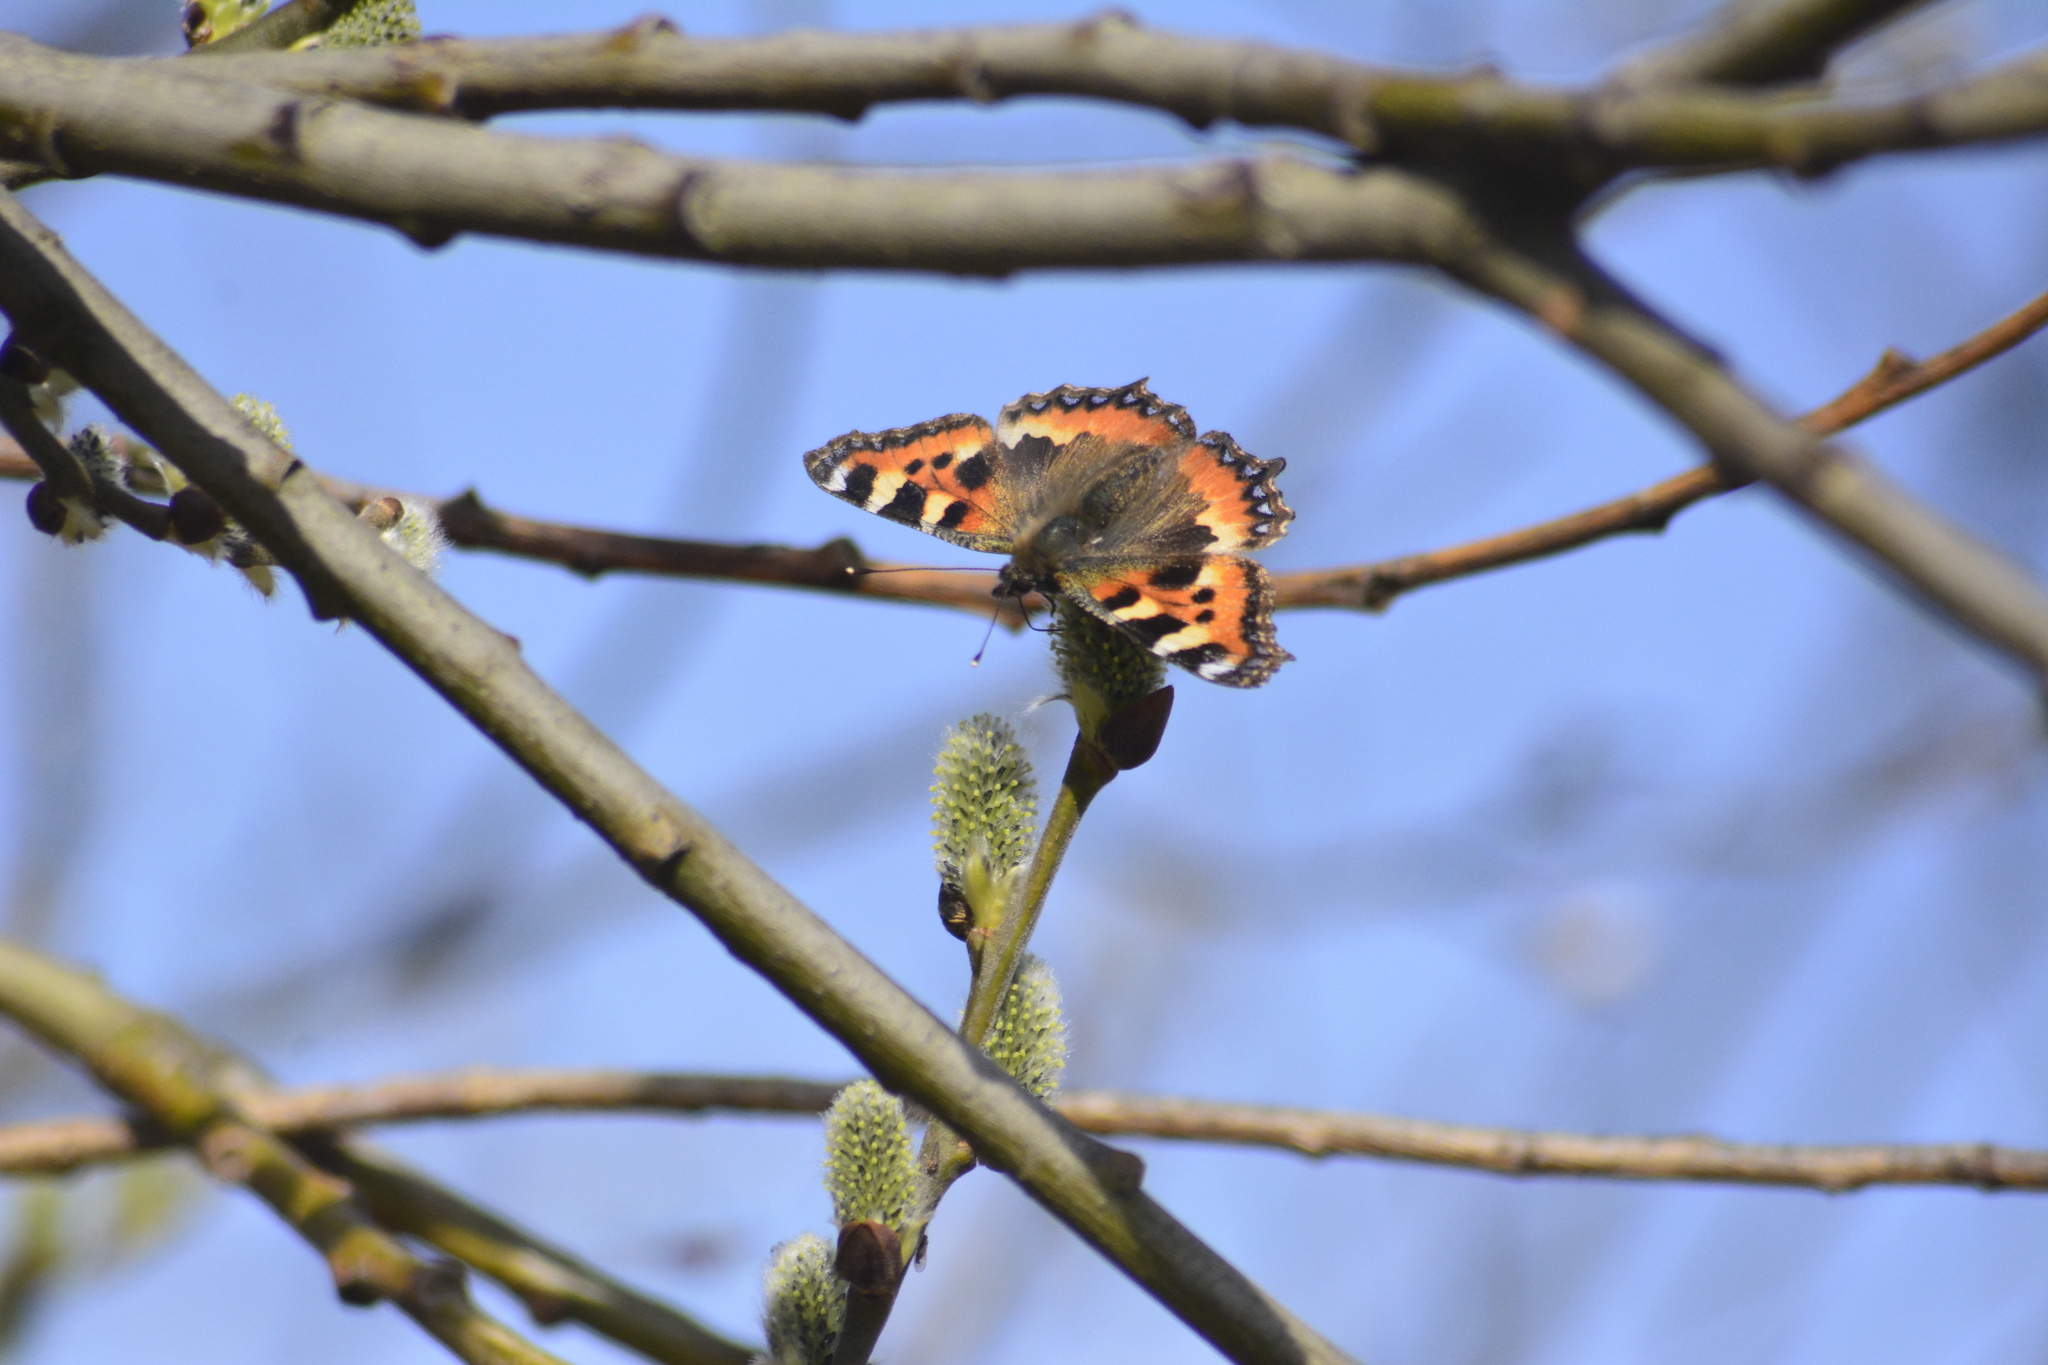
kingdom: Animalia
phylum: Arthropoda
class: Insecta
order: Lepidoptera
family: Nymphalidae
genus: Aglais
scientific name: Aglais urticae
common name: Small tortoiseshell
